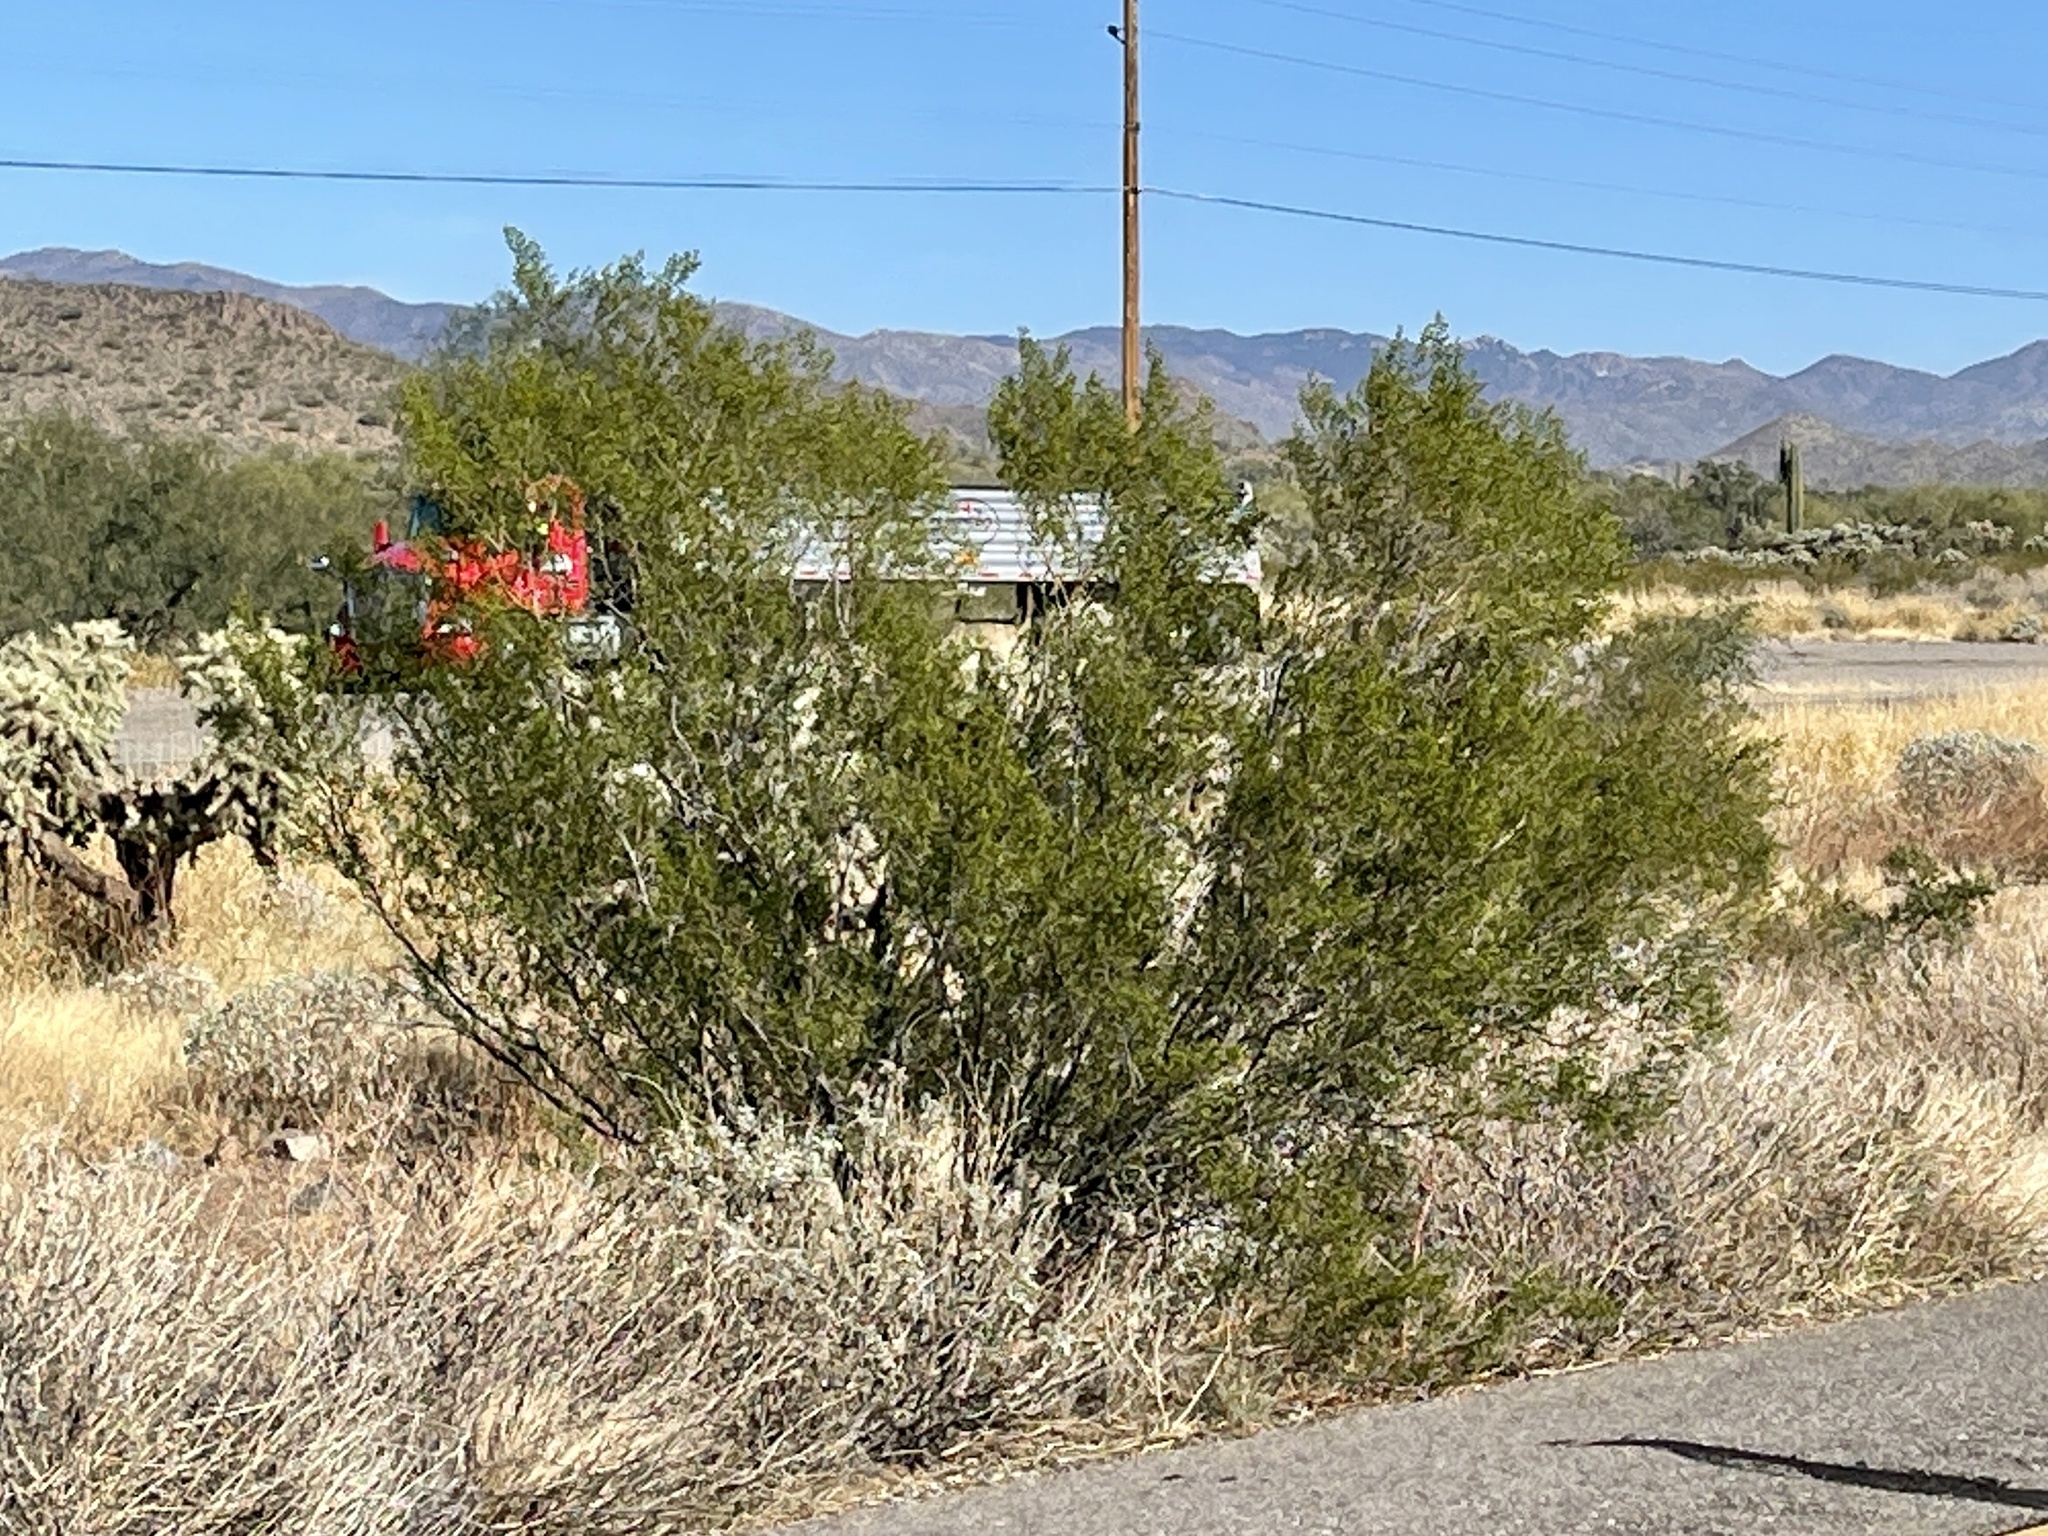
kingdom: Plantae
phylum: Tracheophyta
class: Magnoliopsida
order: Zygophyllales
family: Zygophyllaceae
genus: Larrea
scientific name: Larrea tridentata
